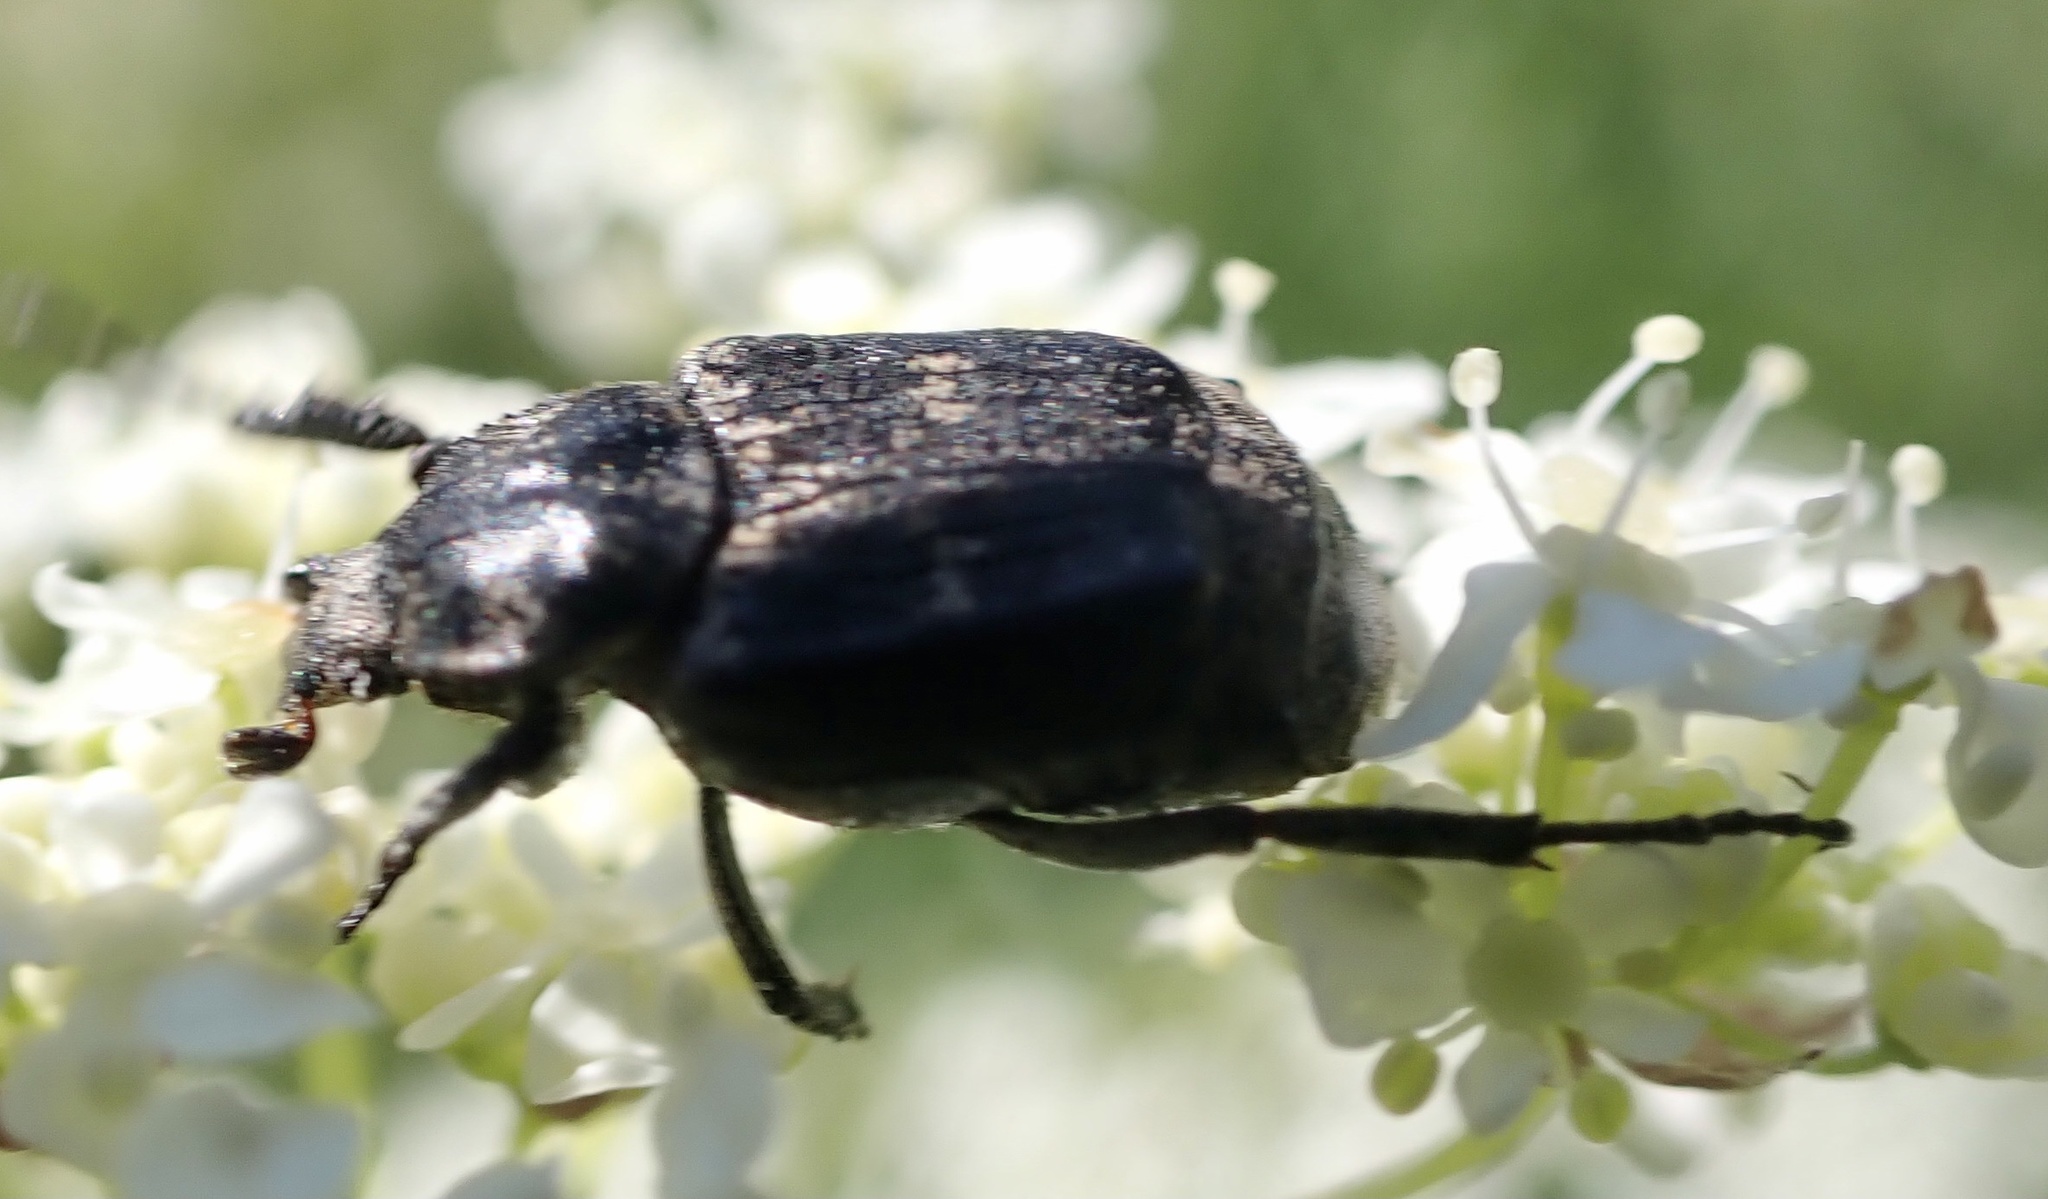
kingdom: Animalia
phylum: Arthropoda
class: Insecta
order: Coleoptera
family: Scarabaeidae
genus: Valgus
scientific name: Valgus hemipterus
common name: Bug flower chafer
